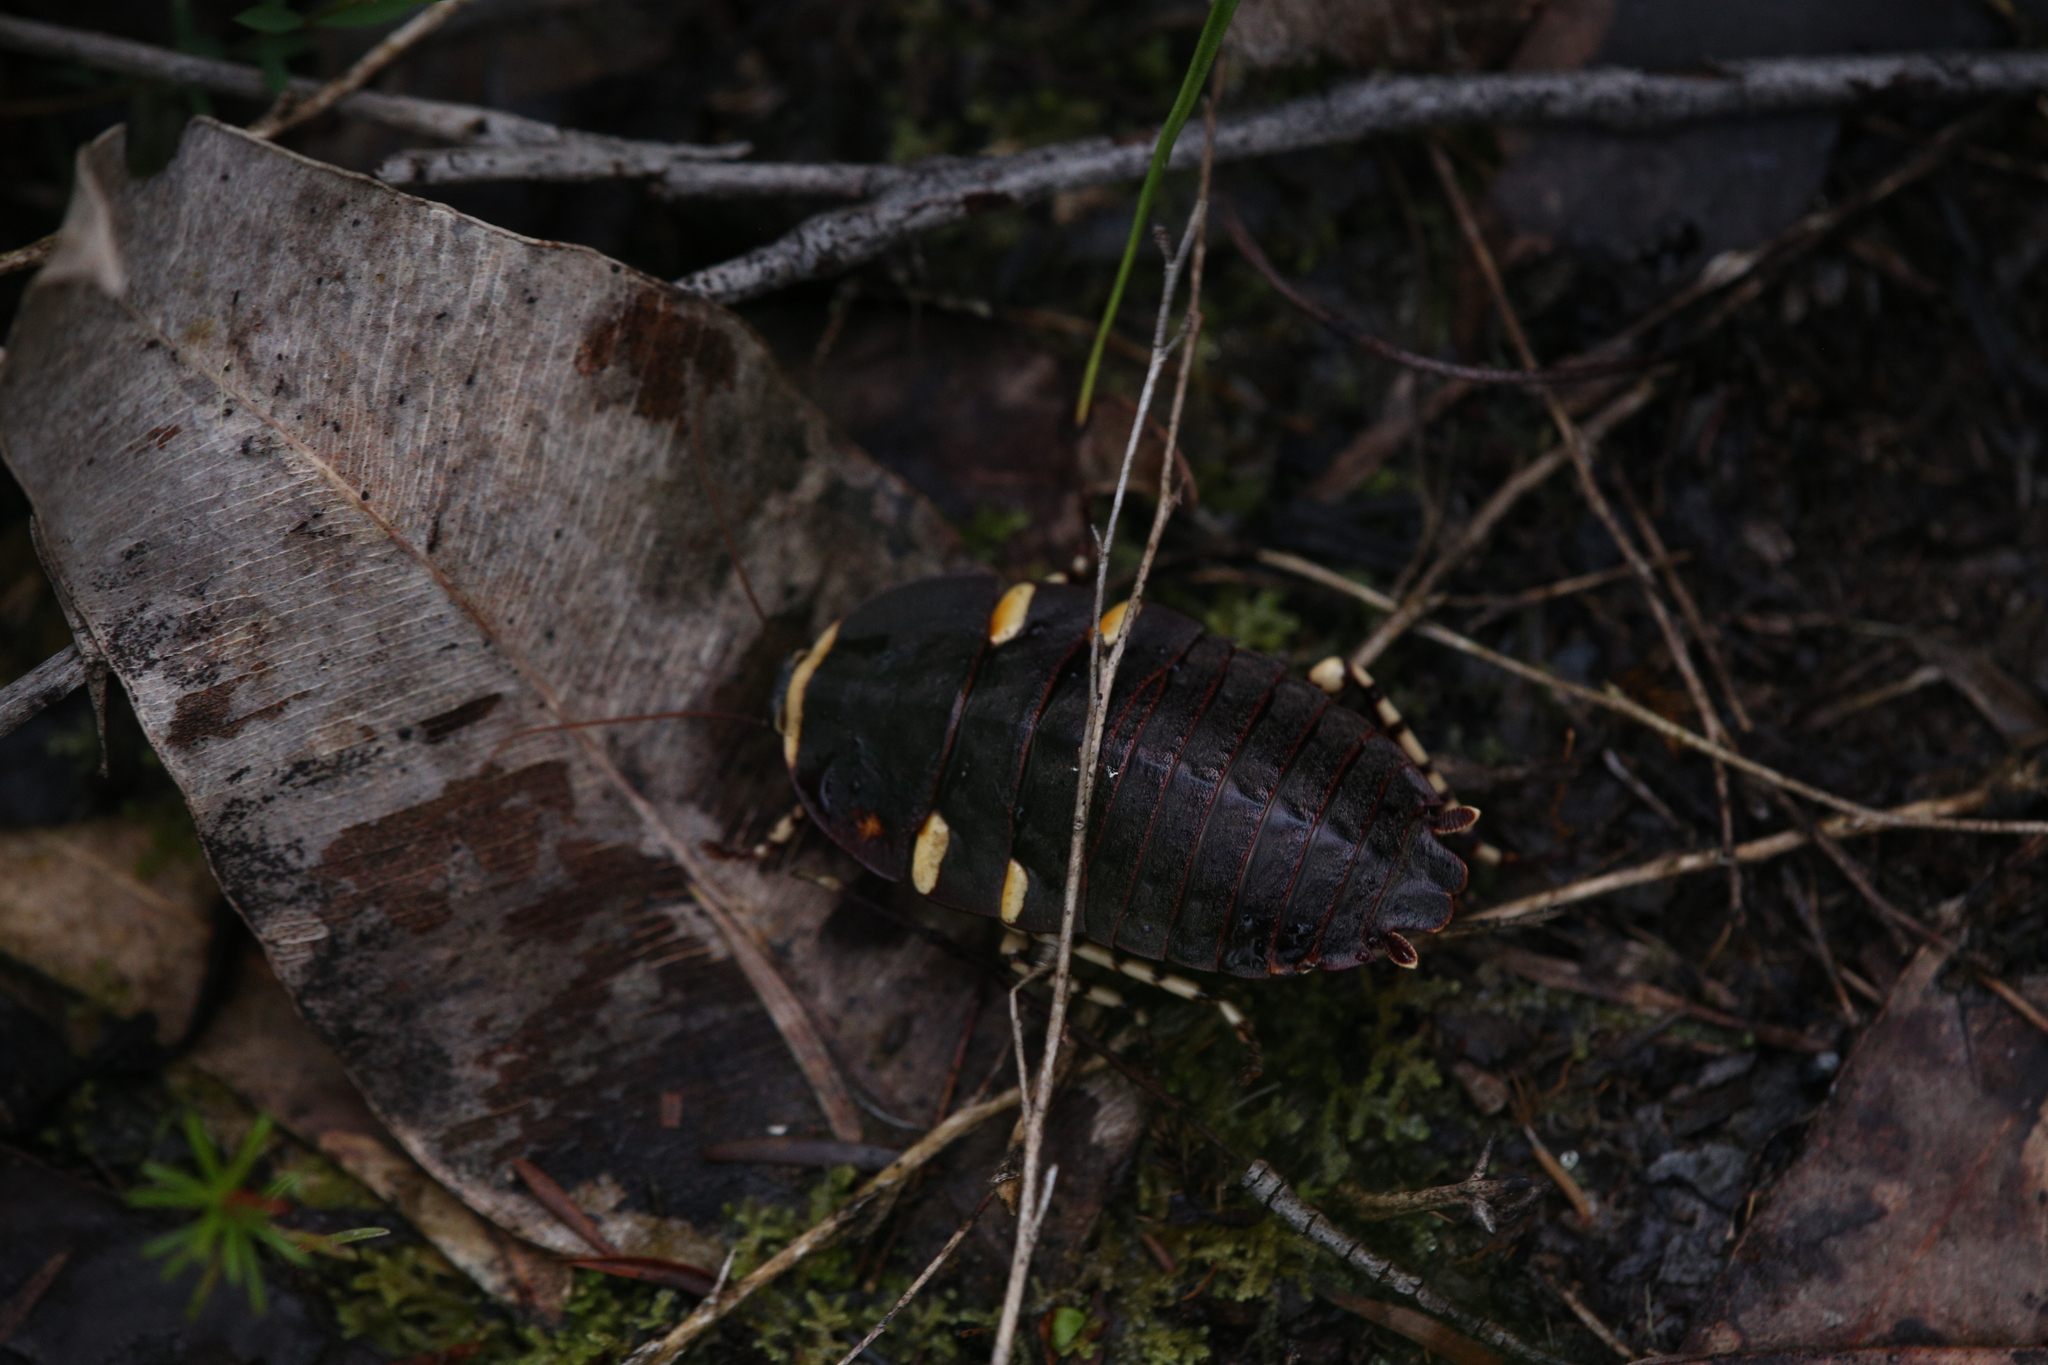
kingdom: Animalia
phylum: Arthropoda
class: Insecta
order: Blattodea
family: Blattidae
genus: Polyzosteria
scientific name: Polyzosteria cuprea
